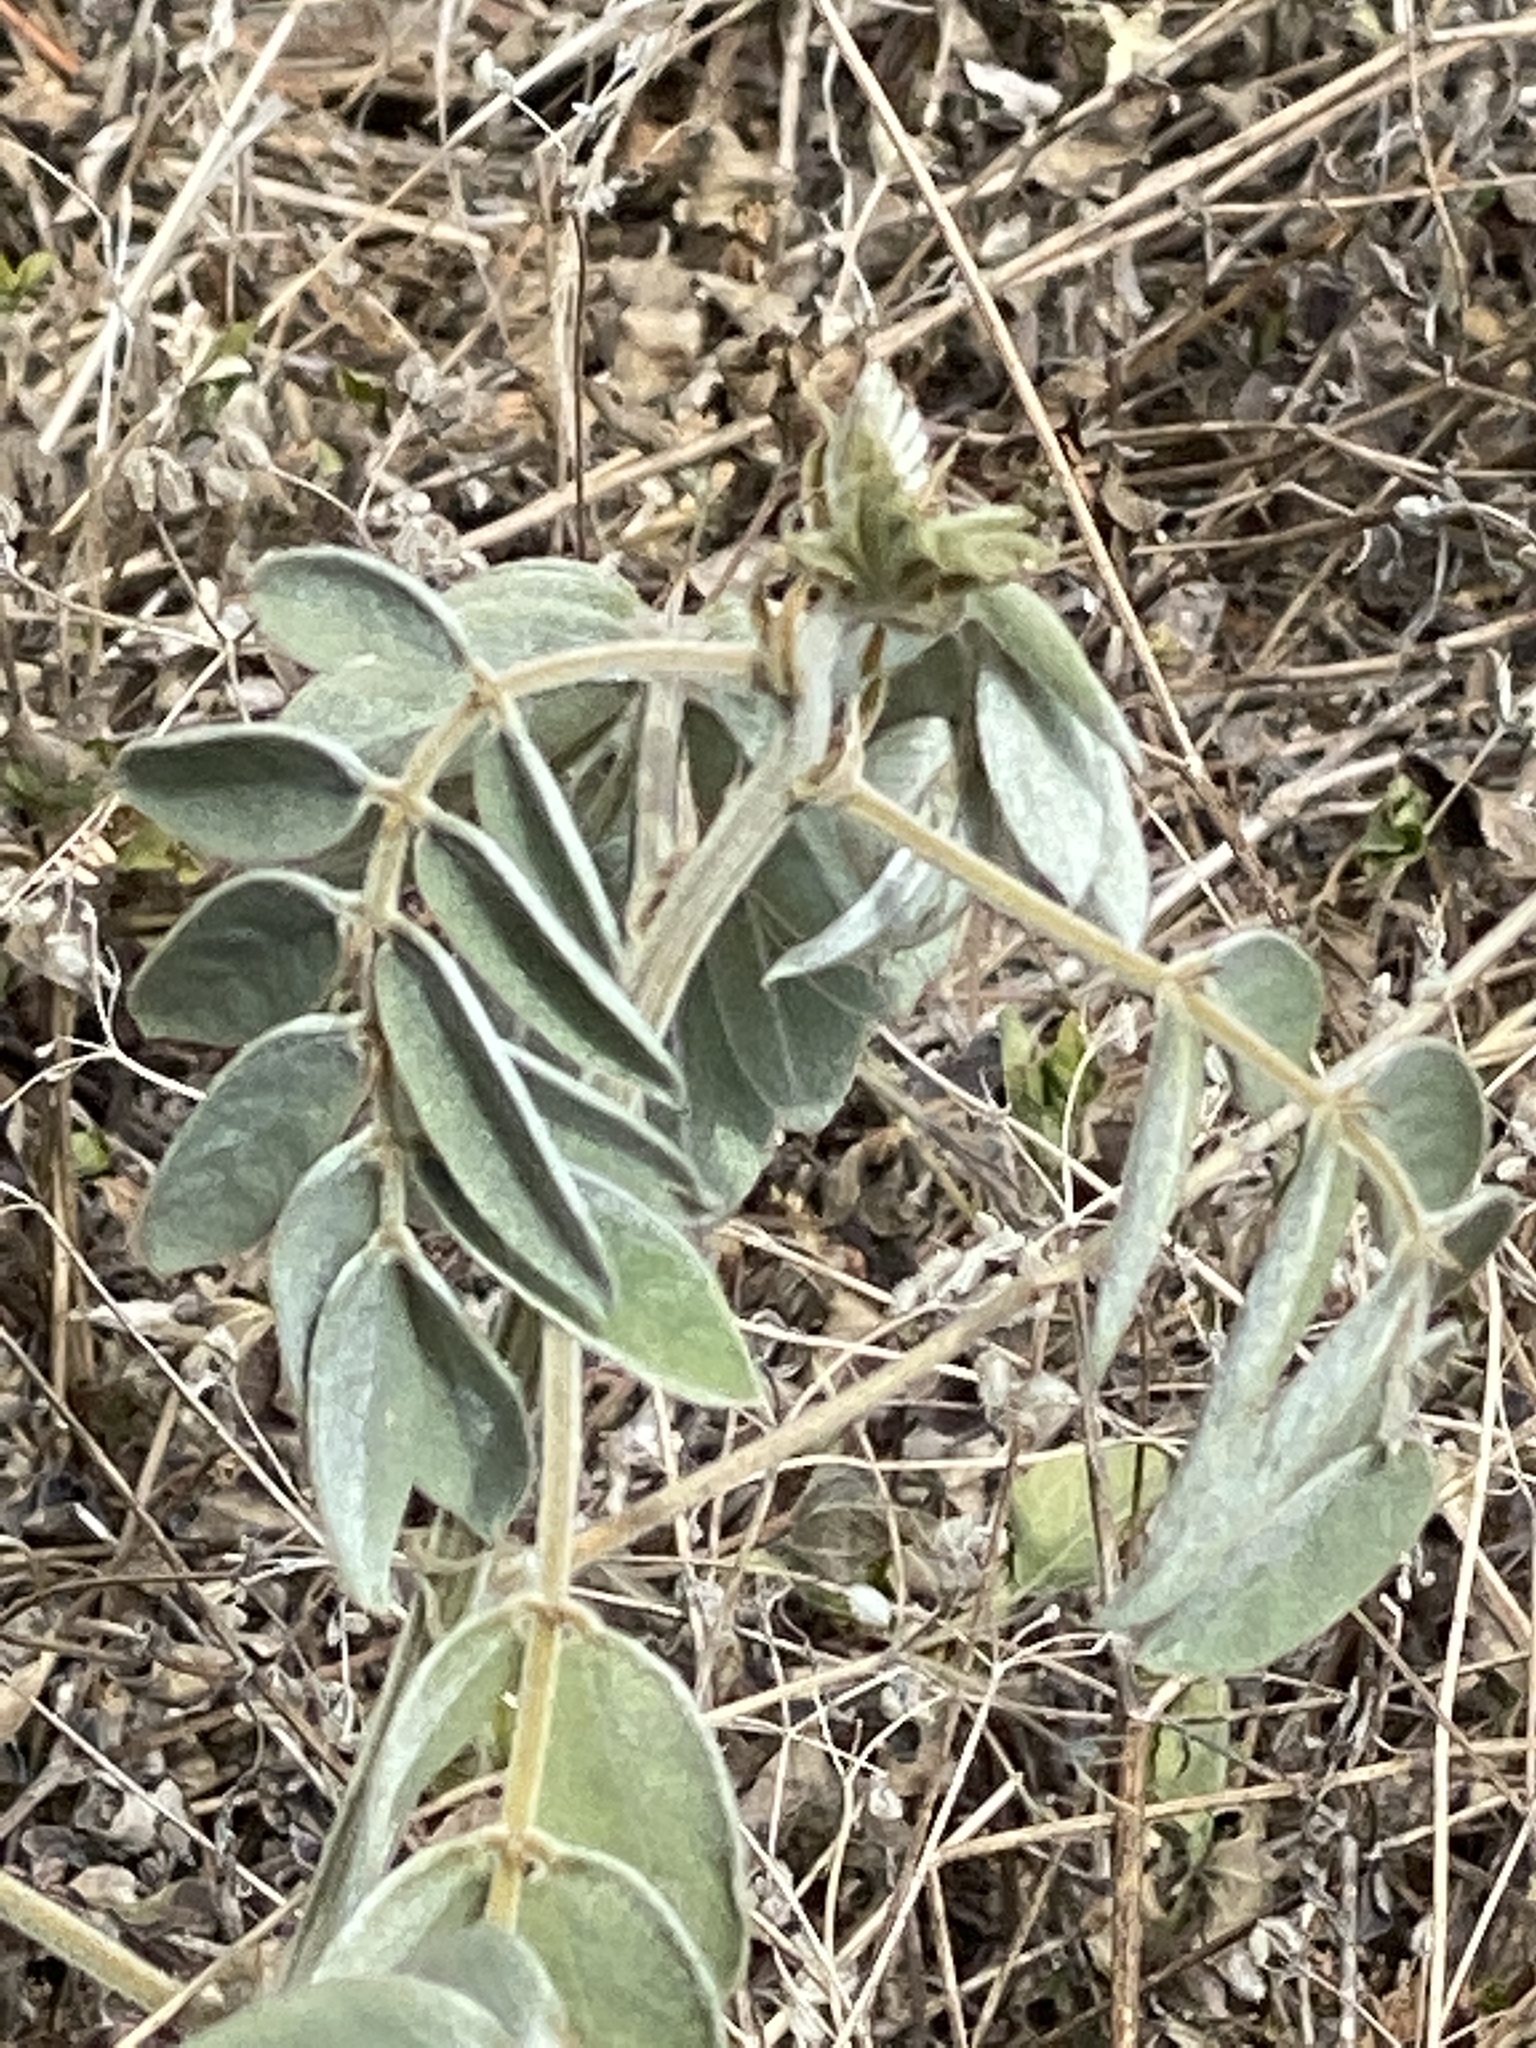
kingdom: Plantae
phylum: Tracheophyta
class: Magnoliopsida
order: Fabales
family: Fabaceae
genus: Senna
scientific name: Senna lindheimeriana
